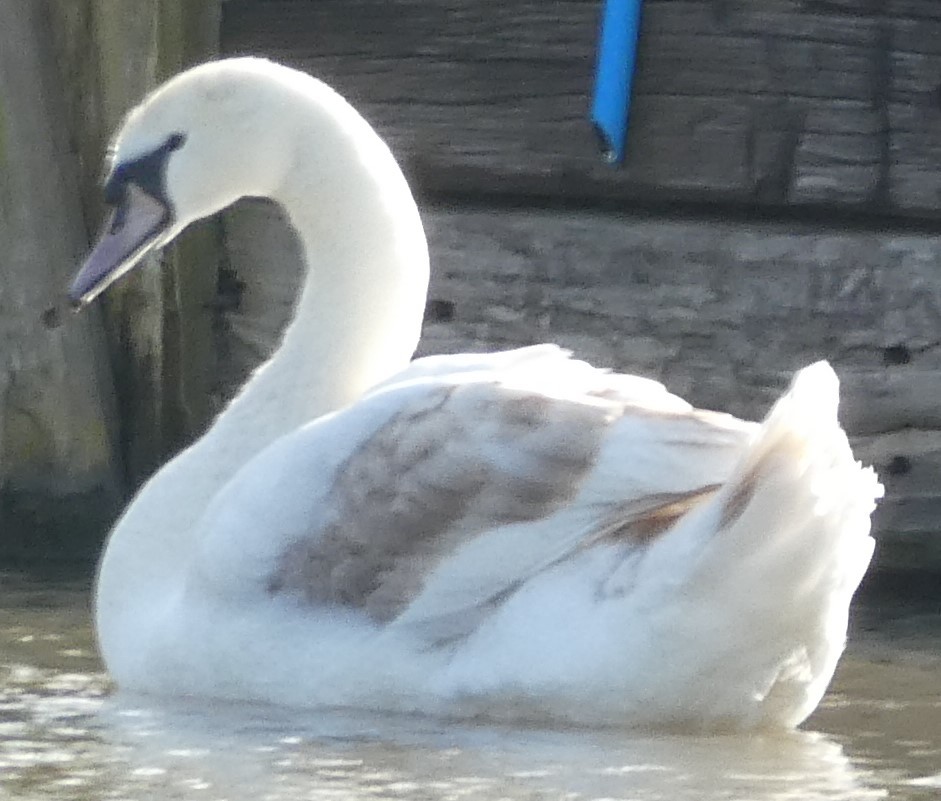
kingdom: Animalia
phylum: Chordata
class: Aves
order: Anseriformes
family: Anatidae
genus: Cygnus
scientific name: Cygnus olor
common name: Mute swan
